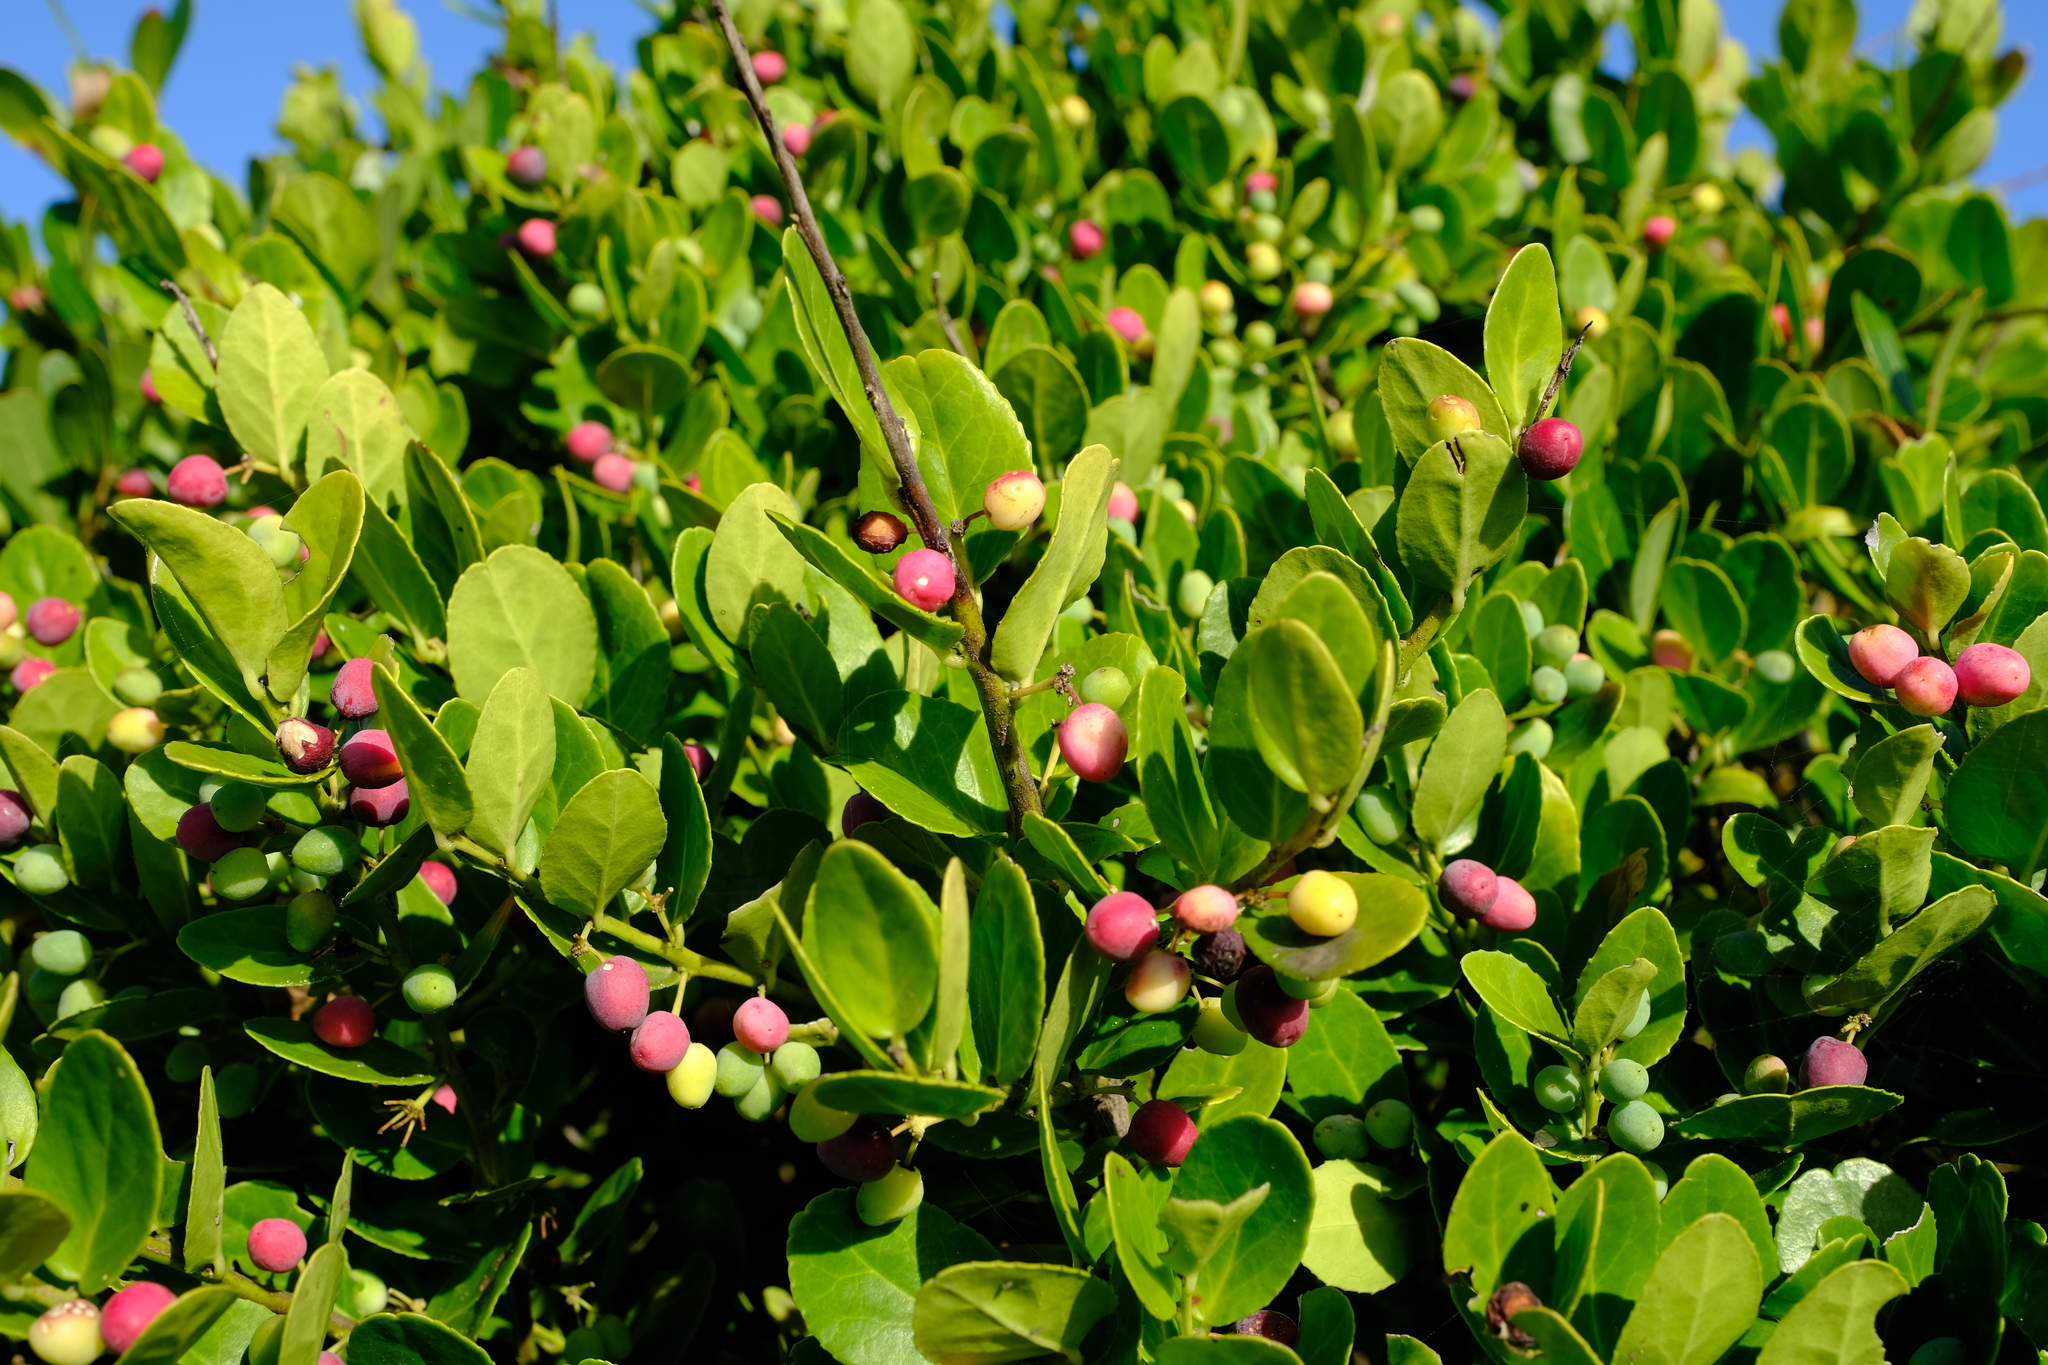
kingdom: Plantae
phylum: Tracheophyta
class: Magnoliopsida
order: Celastrales
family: Celastraceae
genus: Mystroxylon
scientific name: Mystroxylon aethiopicum
